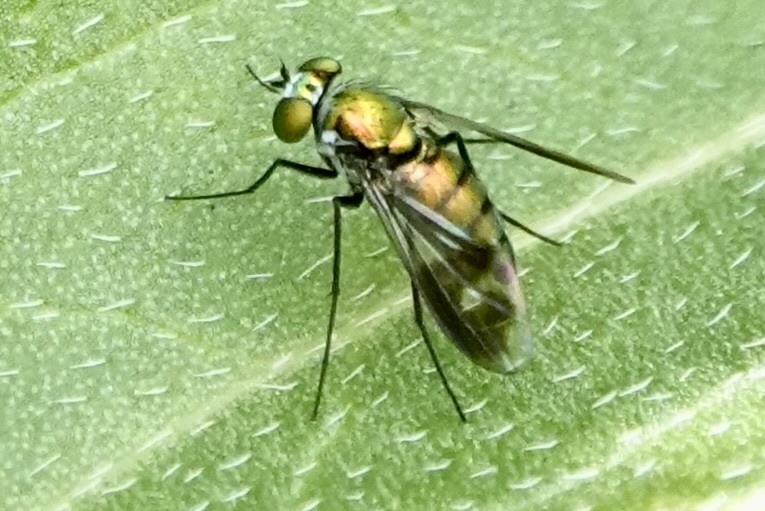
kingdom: Animalia
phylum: Arthropoda
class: Insecta
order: Diptera
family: Dolichopodidae
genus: Condylostylus
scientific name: Condylostylus patibulatus
